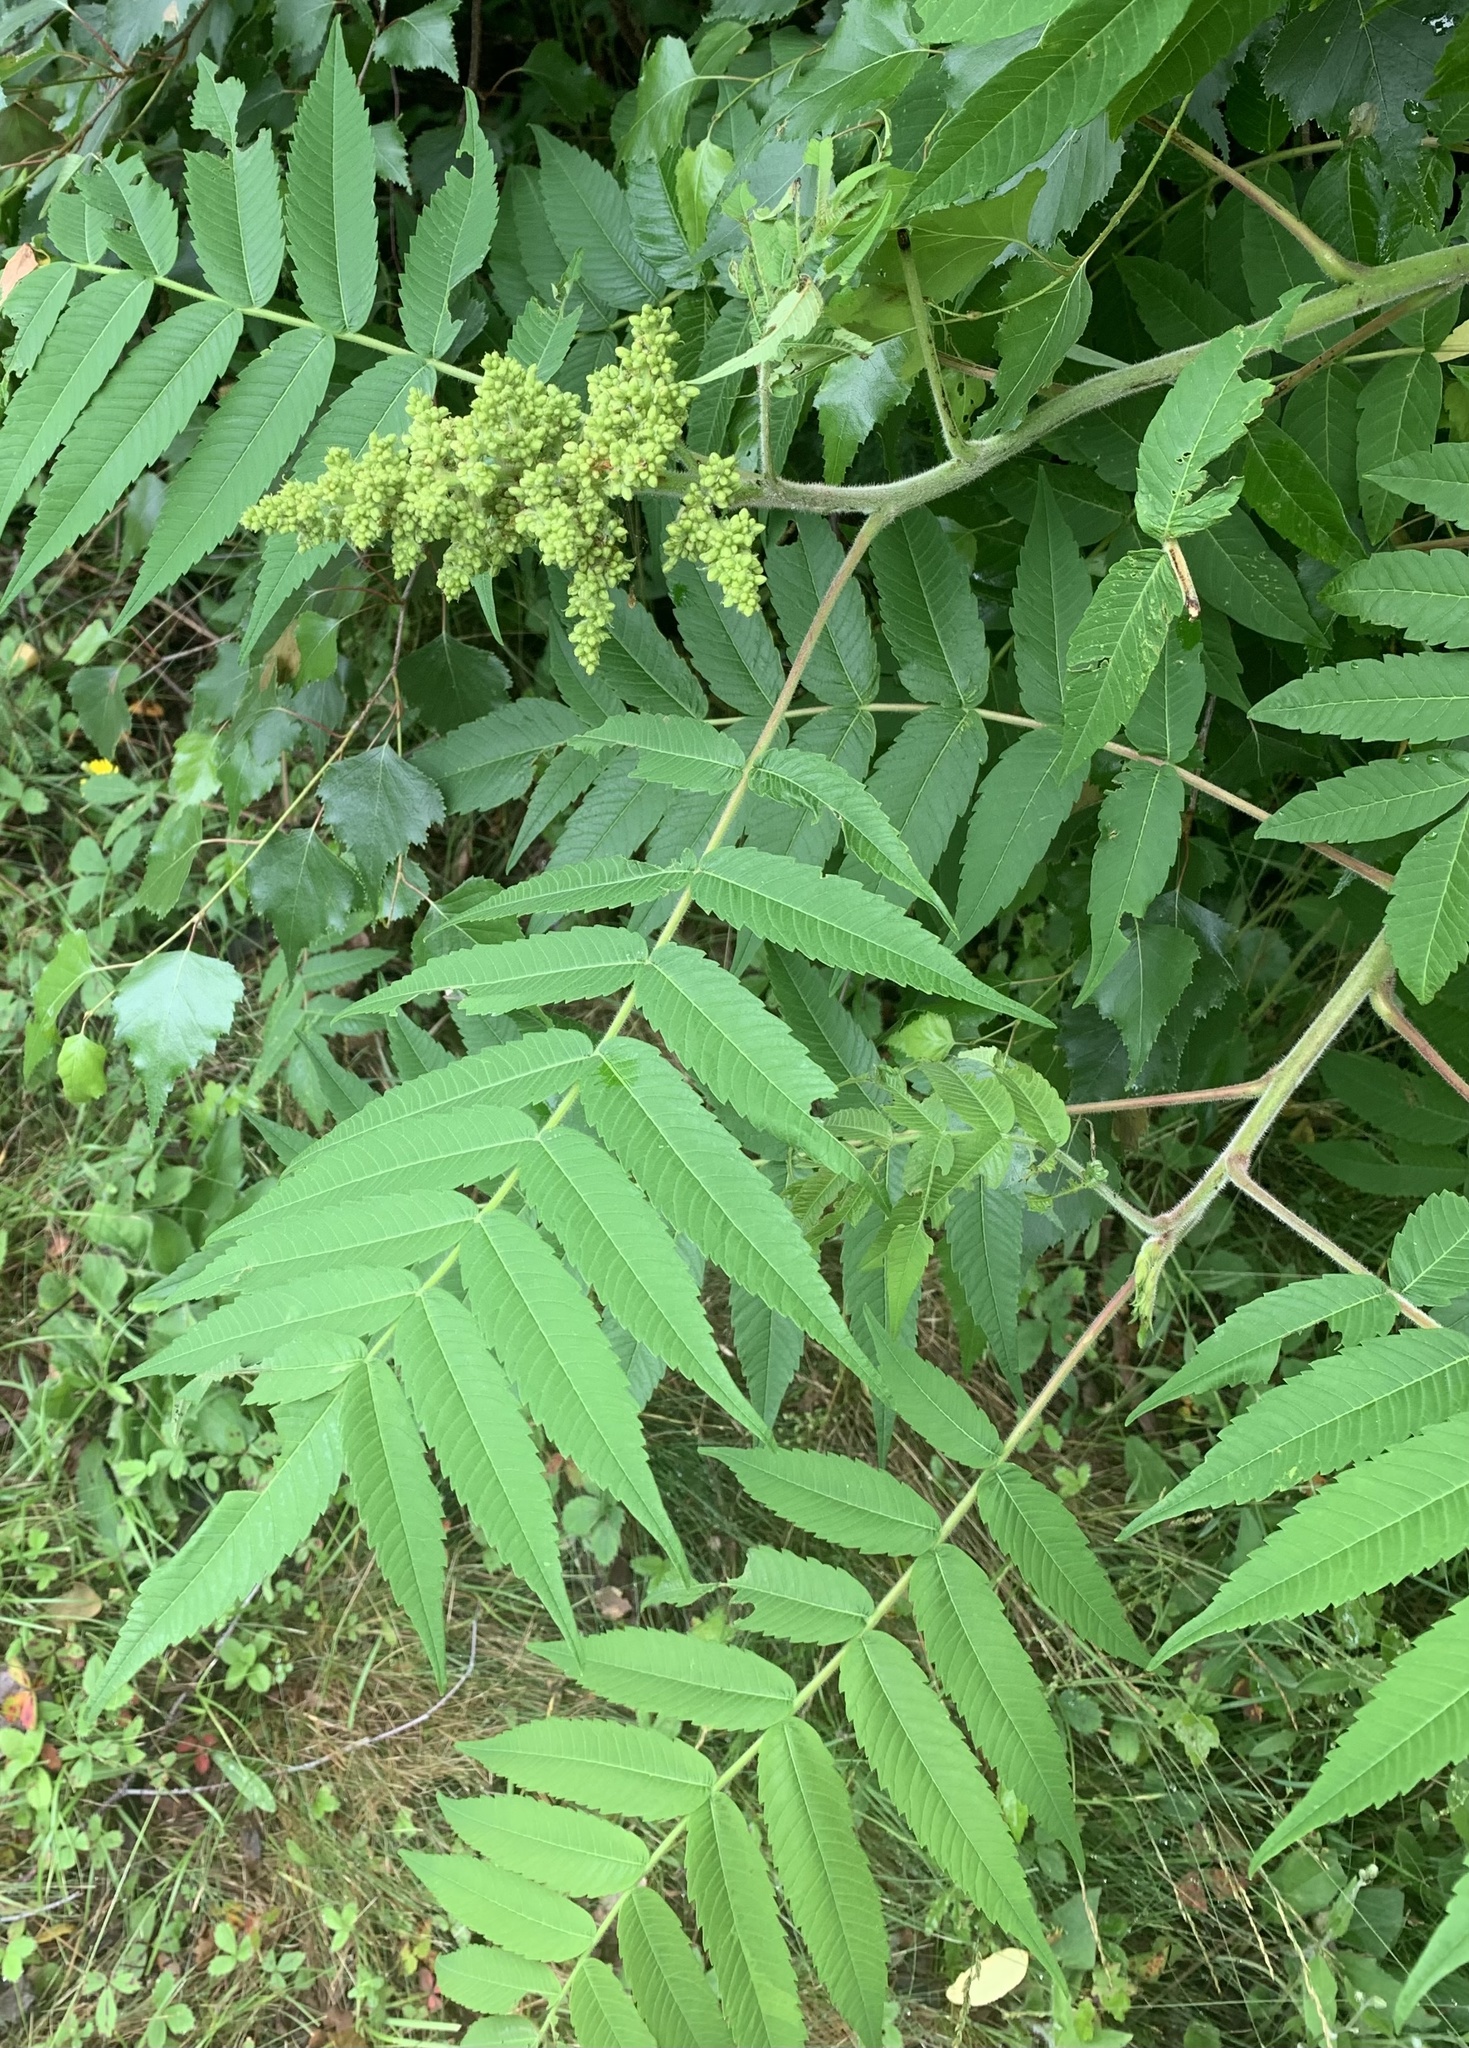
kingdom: Plantae
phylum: Tracheophyta
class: Magnoliopsida
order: Sapindales
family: Anacardiaceae
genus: Rhus
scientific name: Rhus typhina
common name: Staghorn sumac
